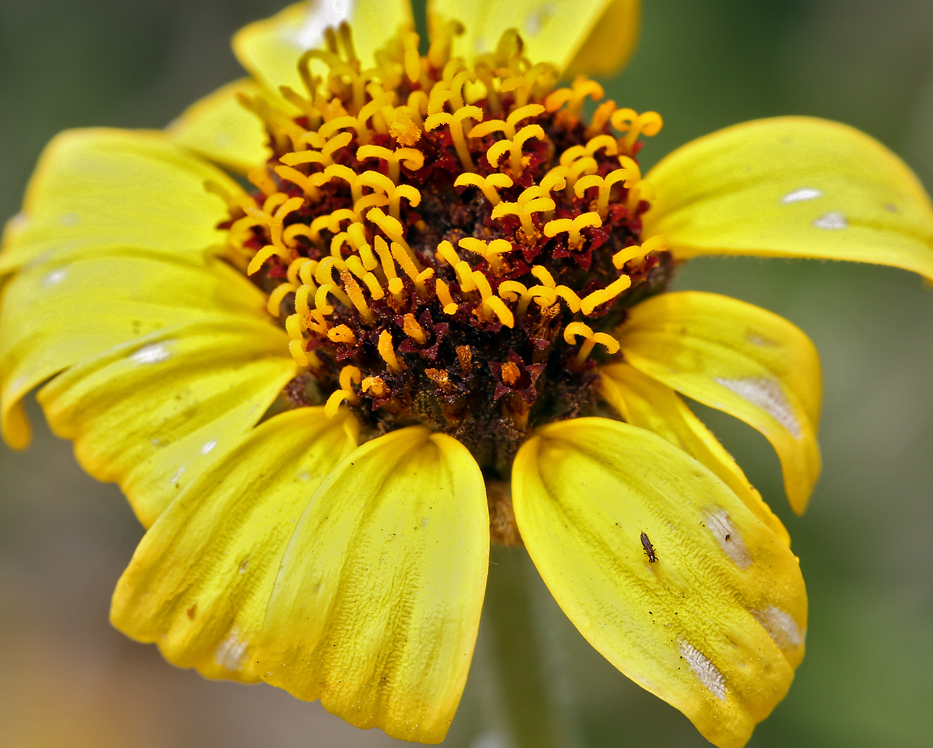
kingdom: Plantae
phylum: Tracheophyta
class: Magnoliopsida
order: Asterales
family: Asteraceae
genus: Encelia
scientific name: Encelia californica
